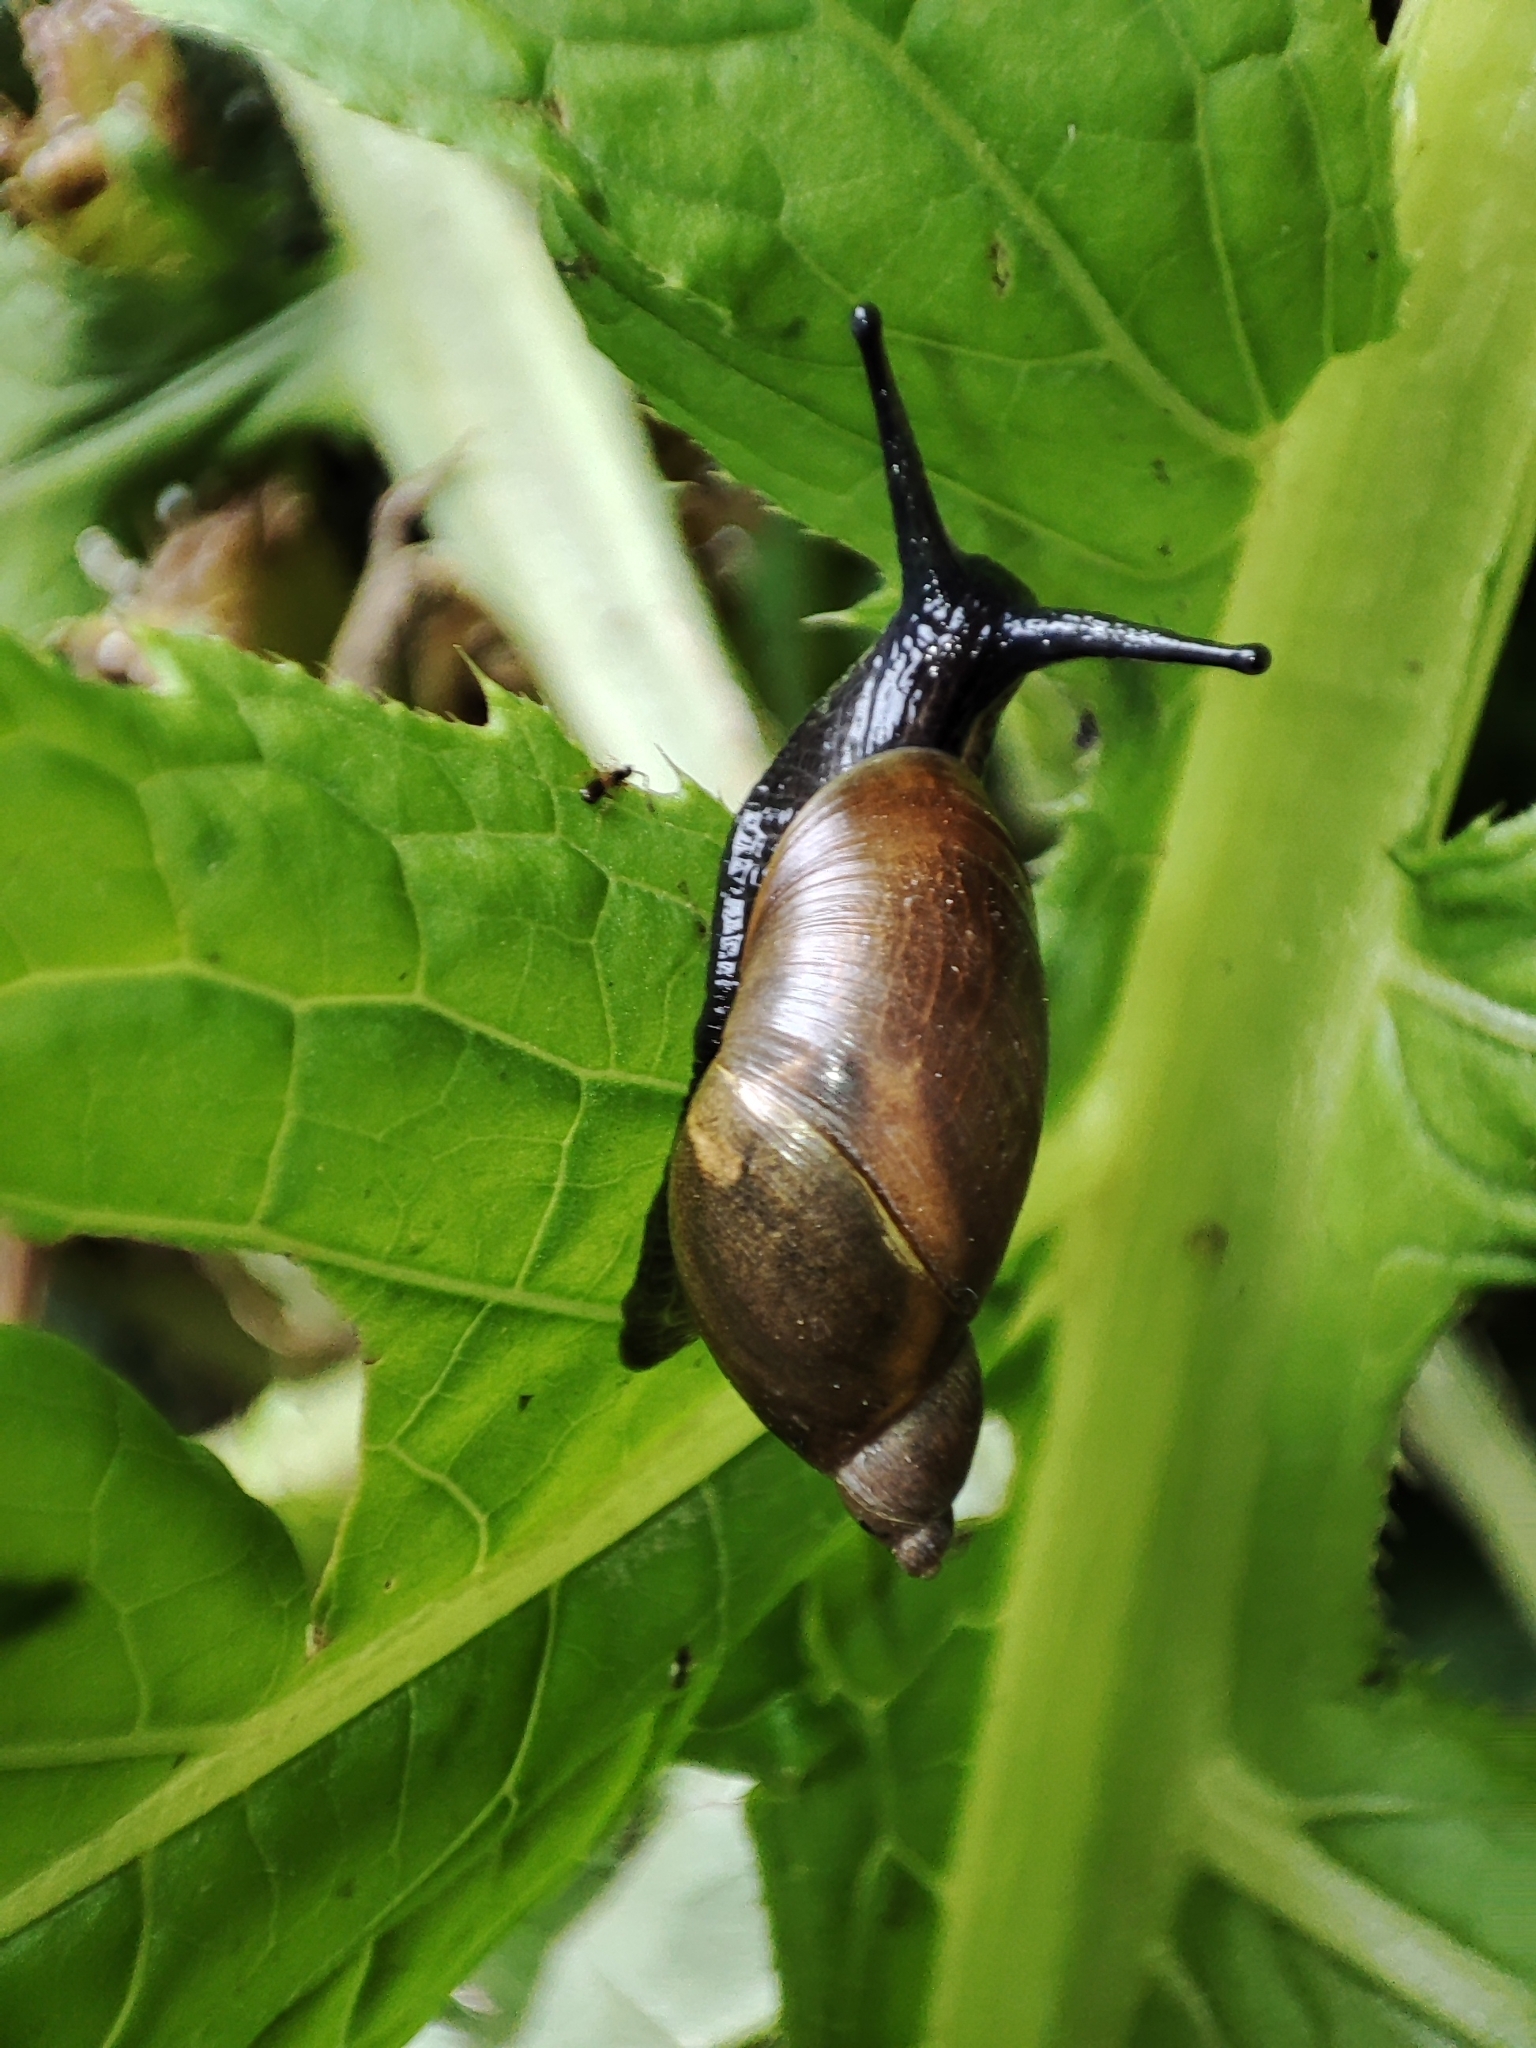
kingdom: Animalia
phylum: Mollusca
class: Gastropoda
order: Stylommatophora
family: Succineidae
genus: Succinea
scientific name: Succinea putris
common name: European ambersnail
